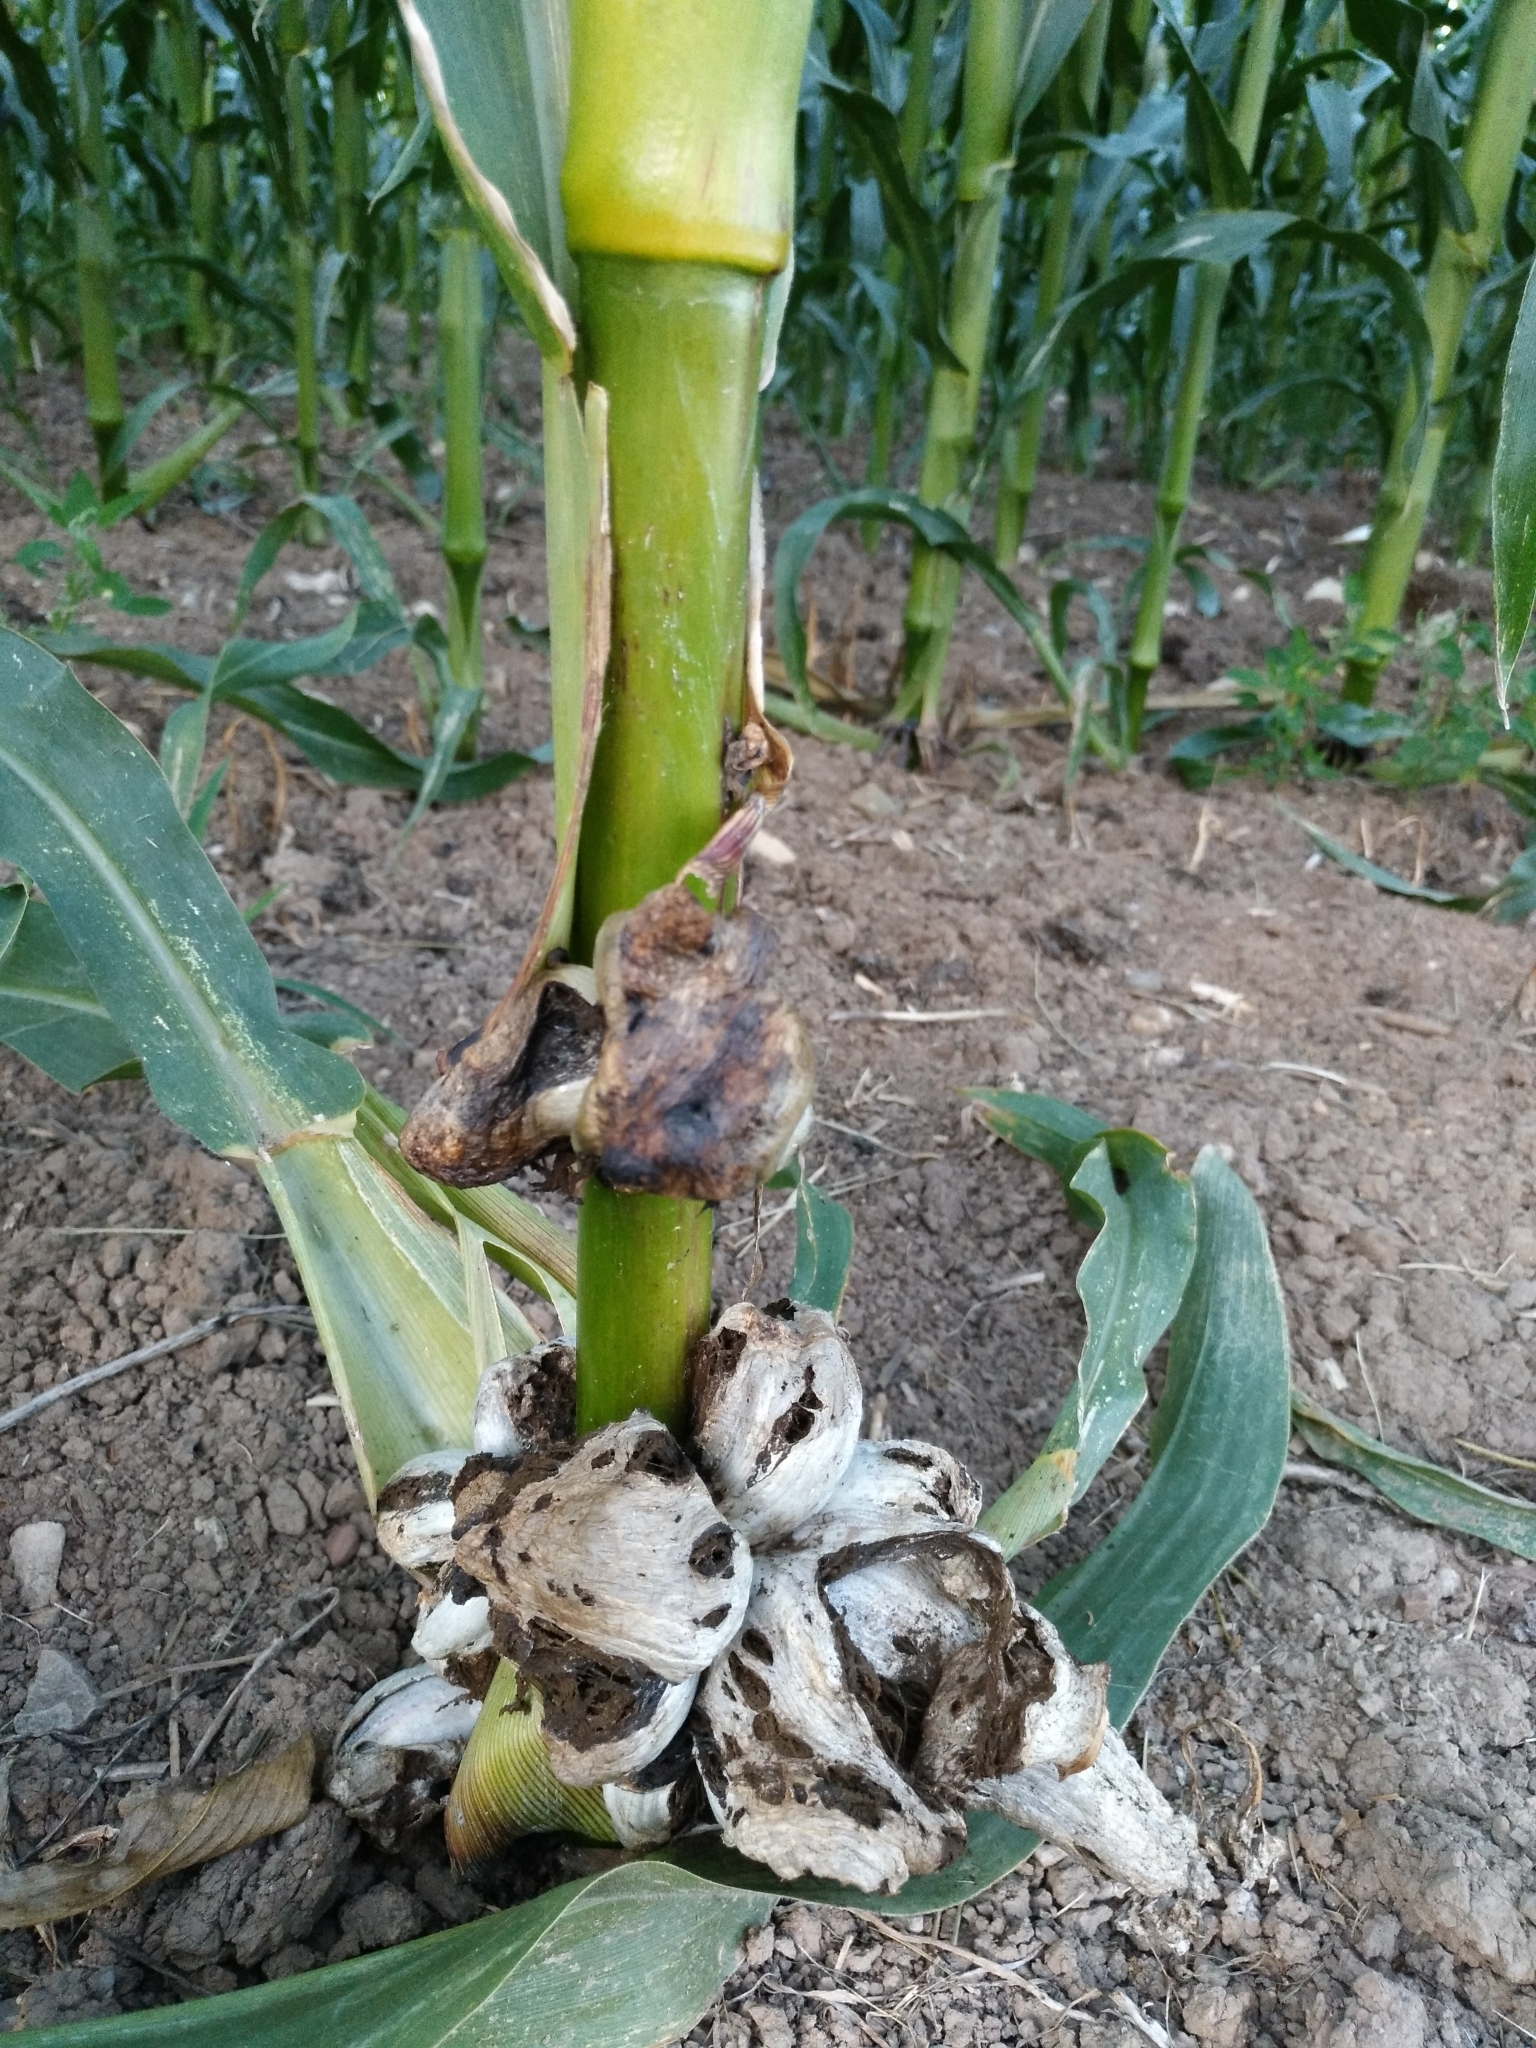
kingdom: Fungi
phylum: Basidiomycota
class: Ustilaginomycetes
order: Ustilaginales
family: Ustilaginaceae
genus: Mycosarcoma
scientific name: Mycosarcoma maydis
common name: Corn smut
